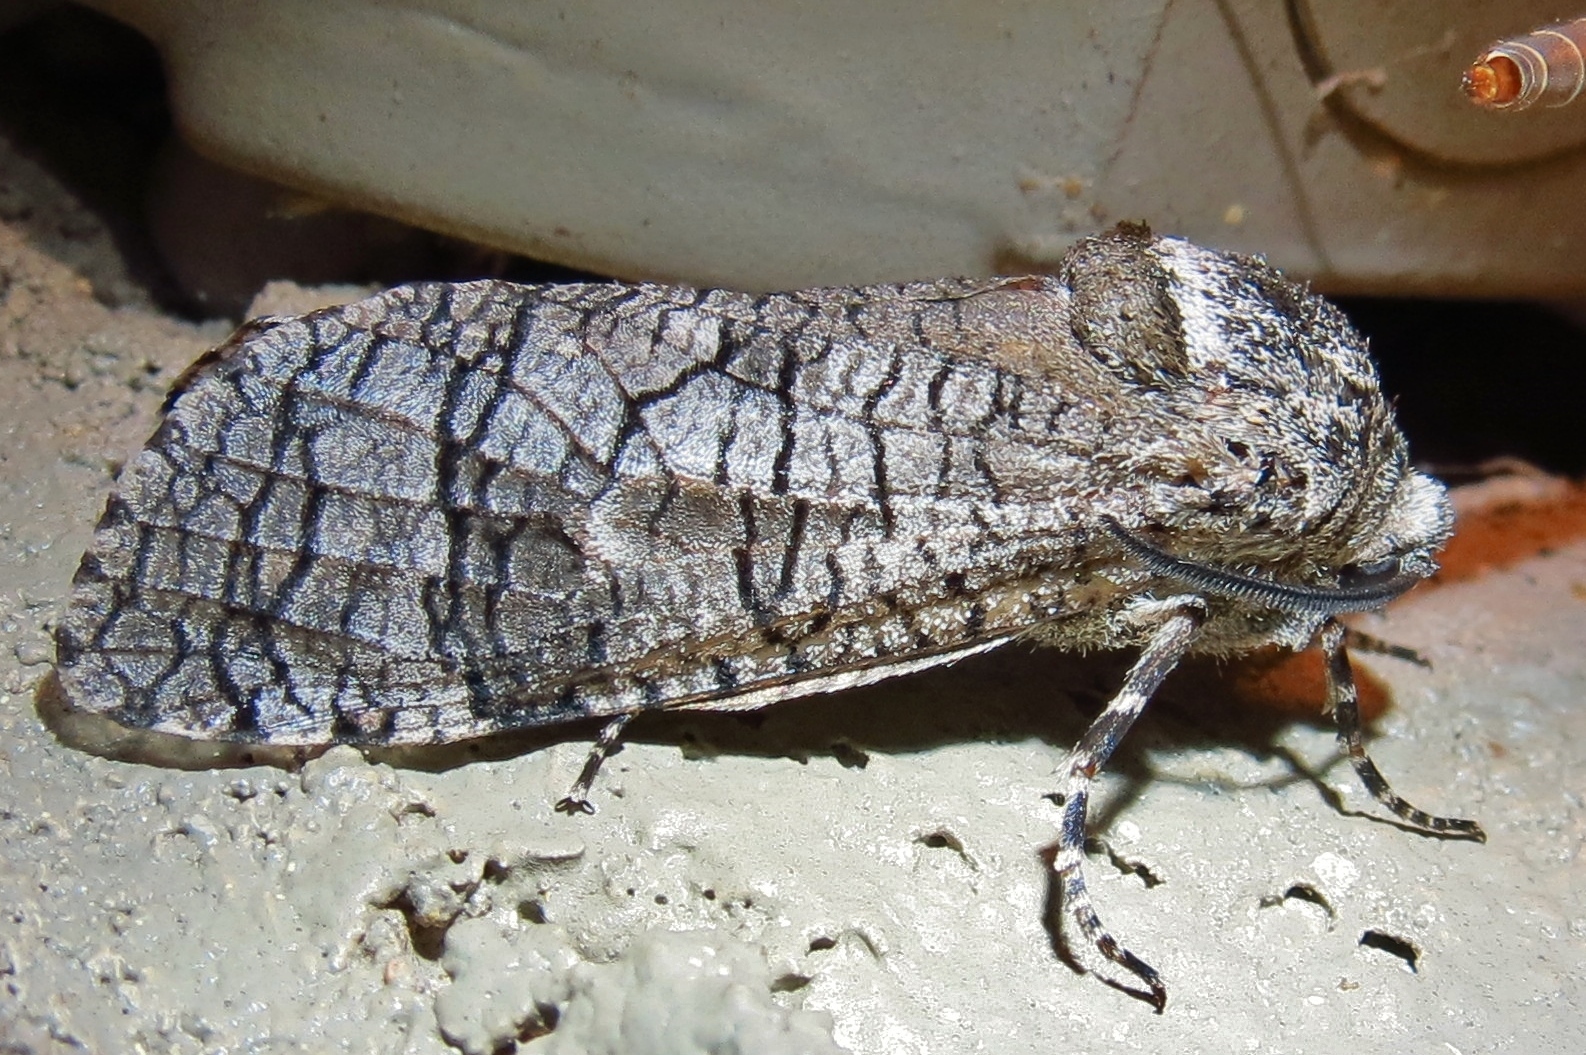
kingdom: Animalia
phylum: Arthropoda
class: Insecta
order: Lepidoptera
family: Cossidae
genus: Prionoxystus
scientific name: Prionoxystus macmurtrei
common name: Little carpenterworm
